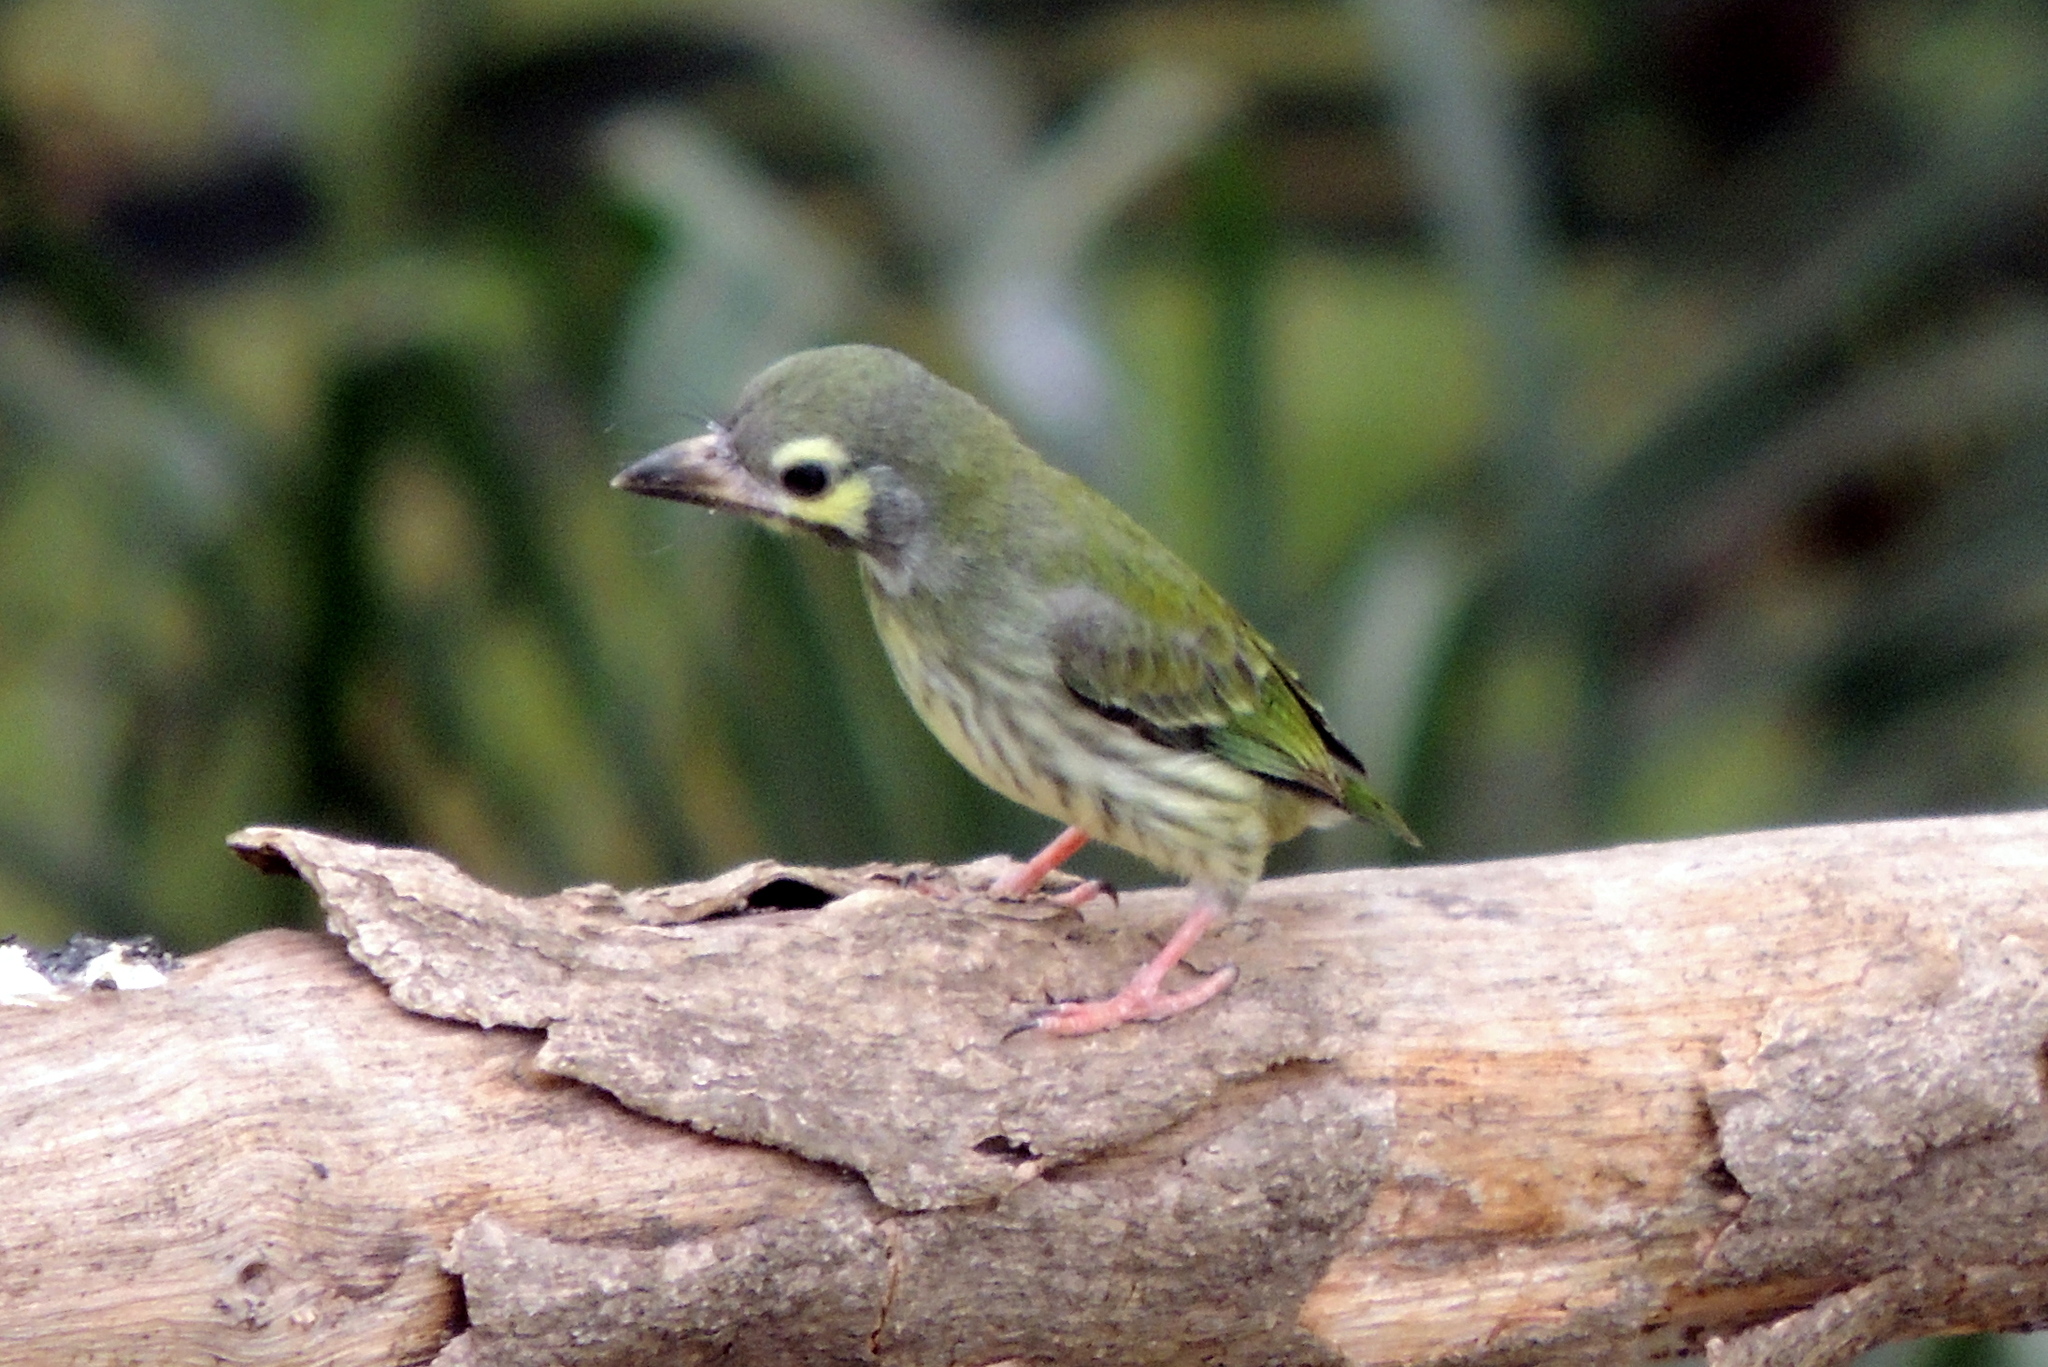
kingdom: Animalia
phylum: Chordata
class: Aves
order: Piciformes
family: Megalaimidae
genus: Psilopogon
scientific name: Psilopogon haemacephalus
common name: Coppersmith barbet
